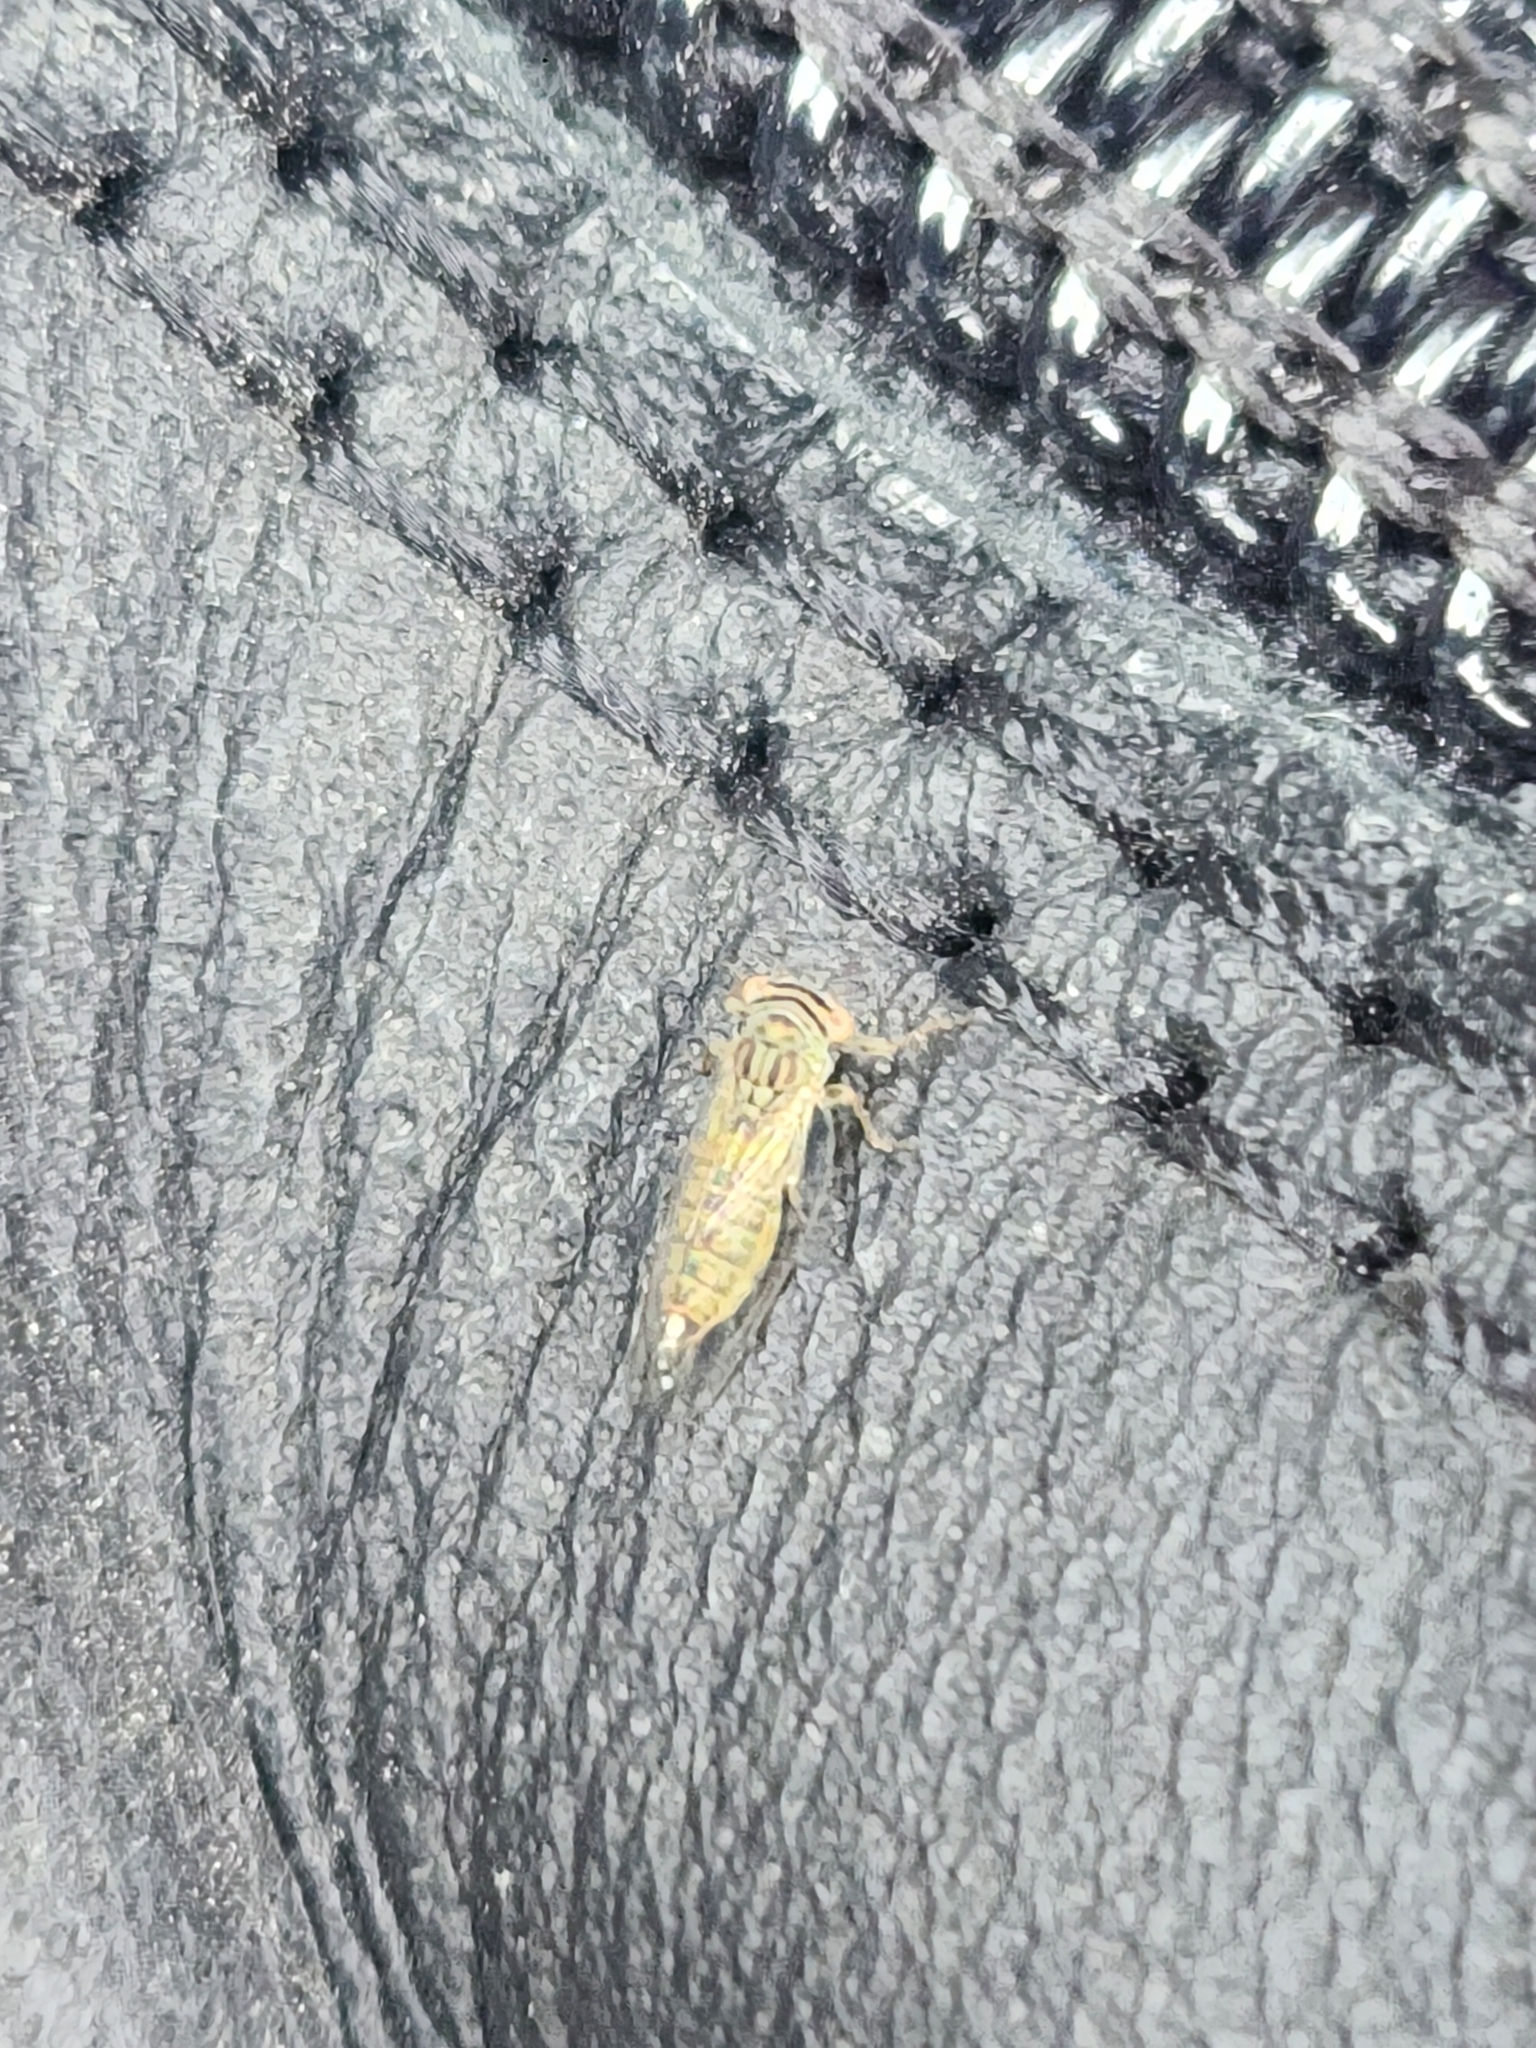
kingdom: Animalia
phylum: Arthropoda
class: Insecta
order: Hemiptera
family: Psyllidae
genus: Platycorypha
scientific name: Platycorypha nigrivirga
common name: Tipu psyllid
